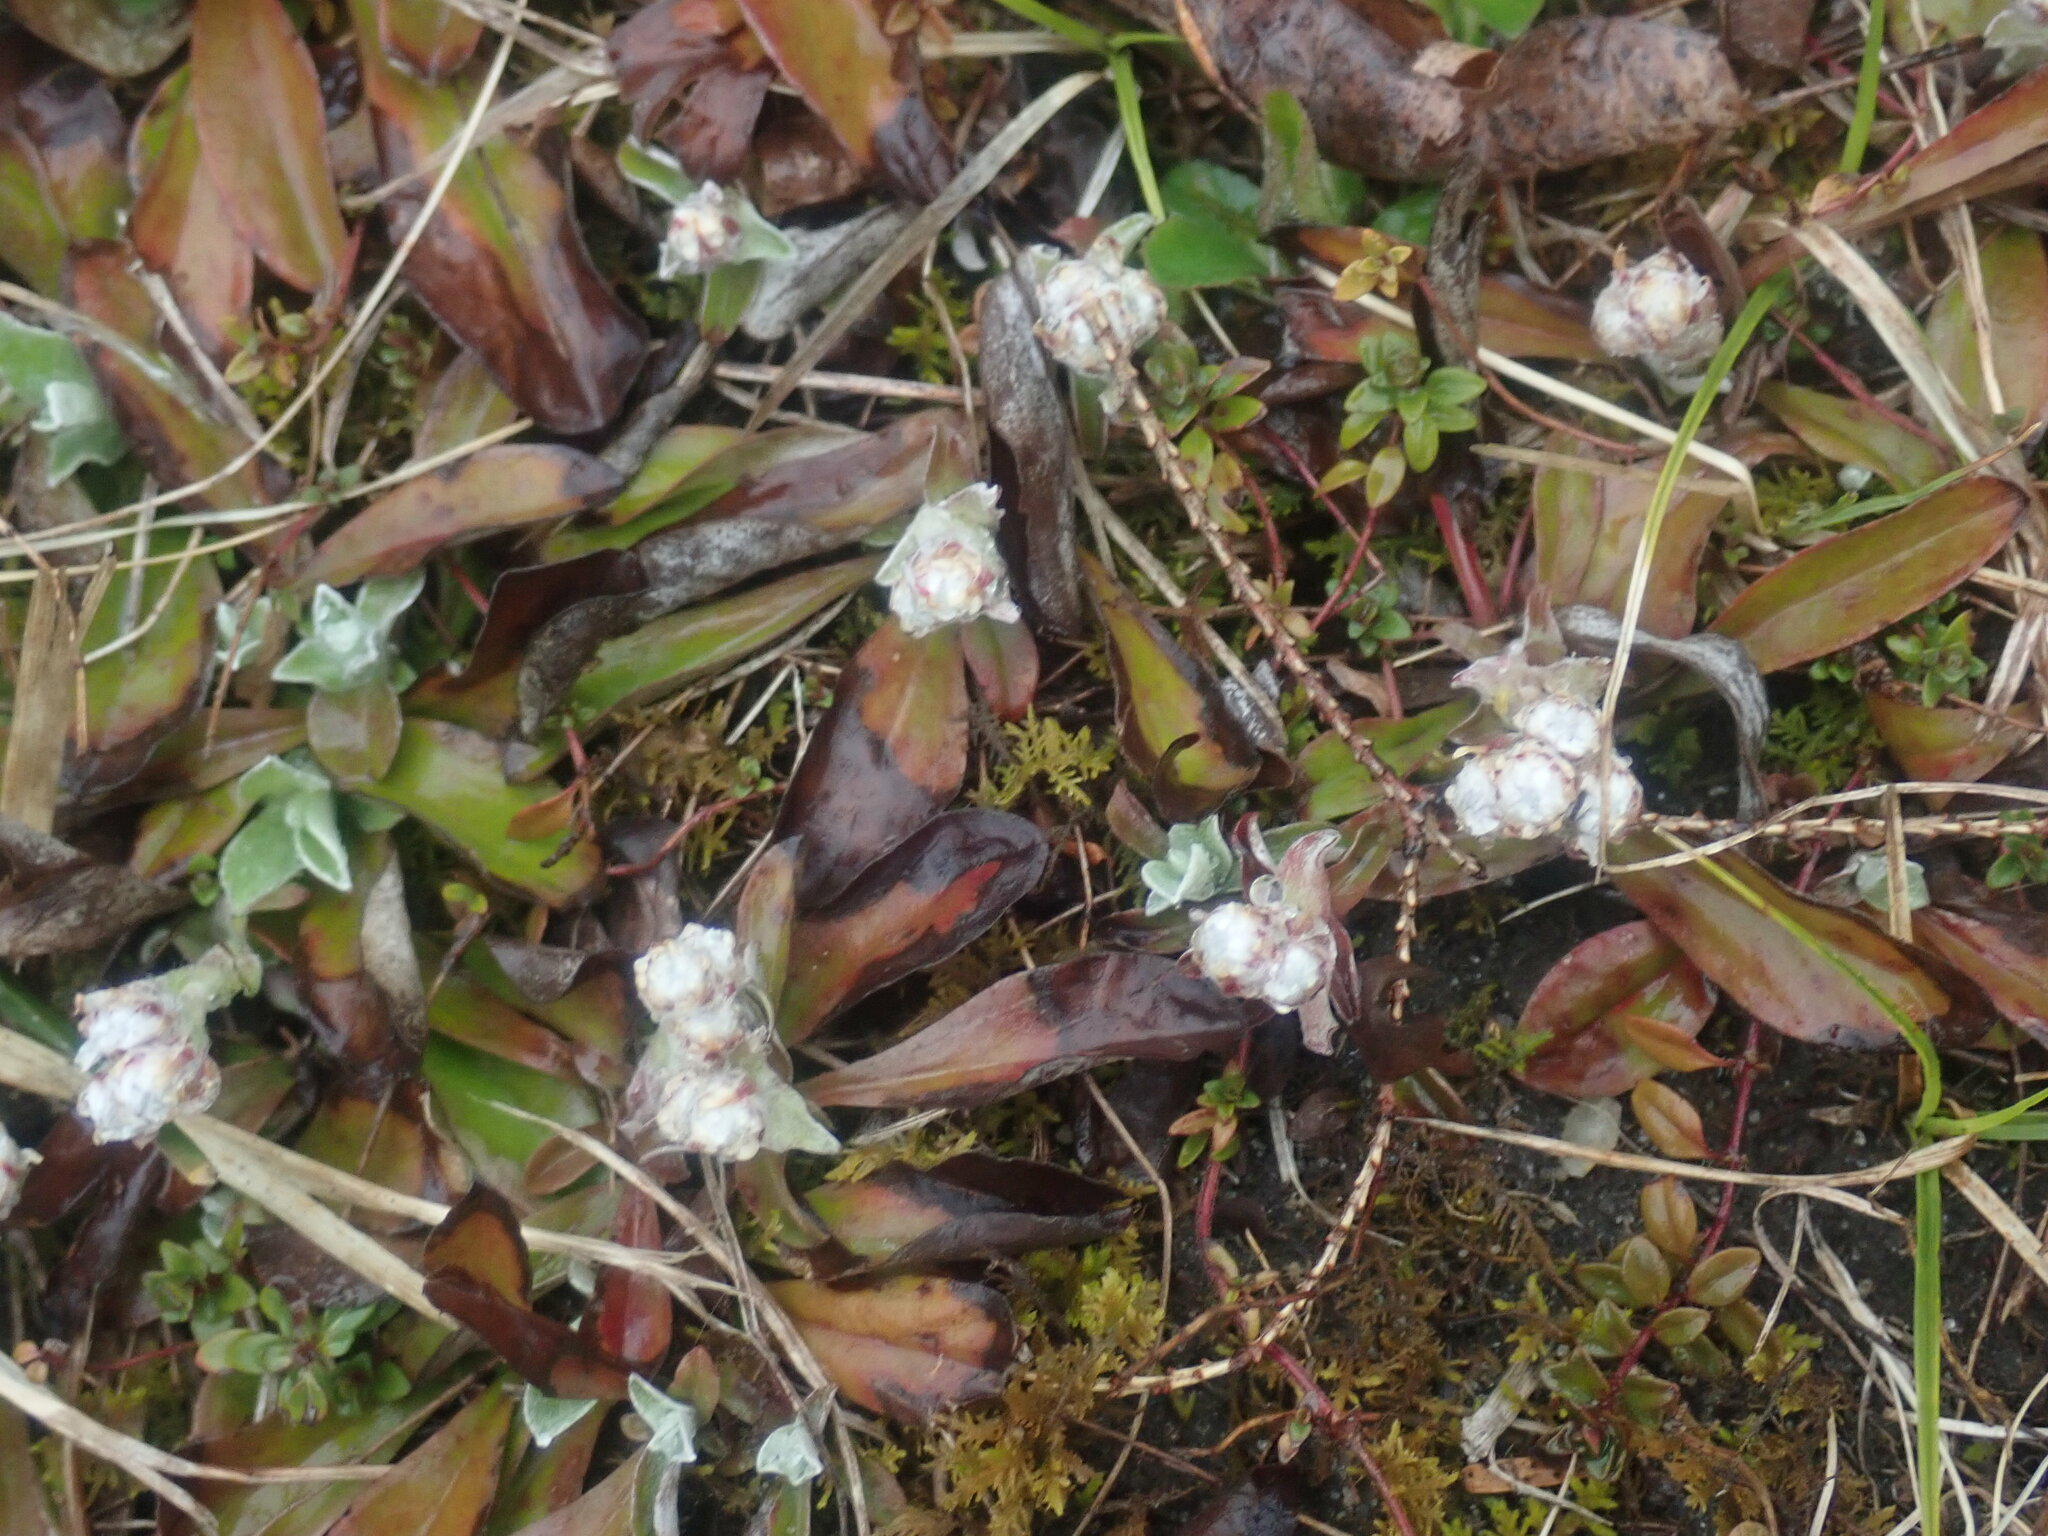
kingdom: Plantae
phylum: Tracheophyta
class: Magnoliopsida
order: Asterales
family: Asteraceae
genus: Antennaria
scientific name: Antennaria
